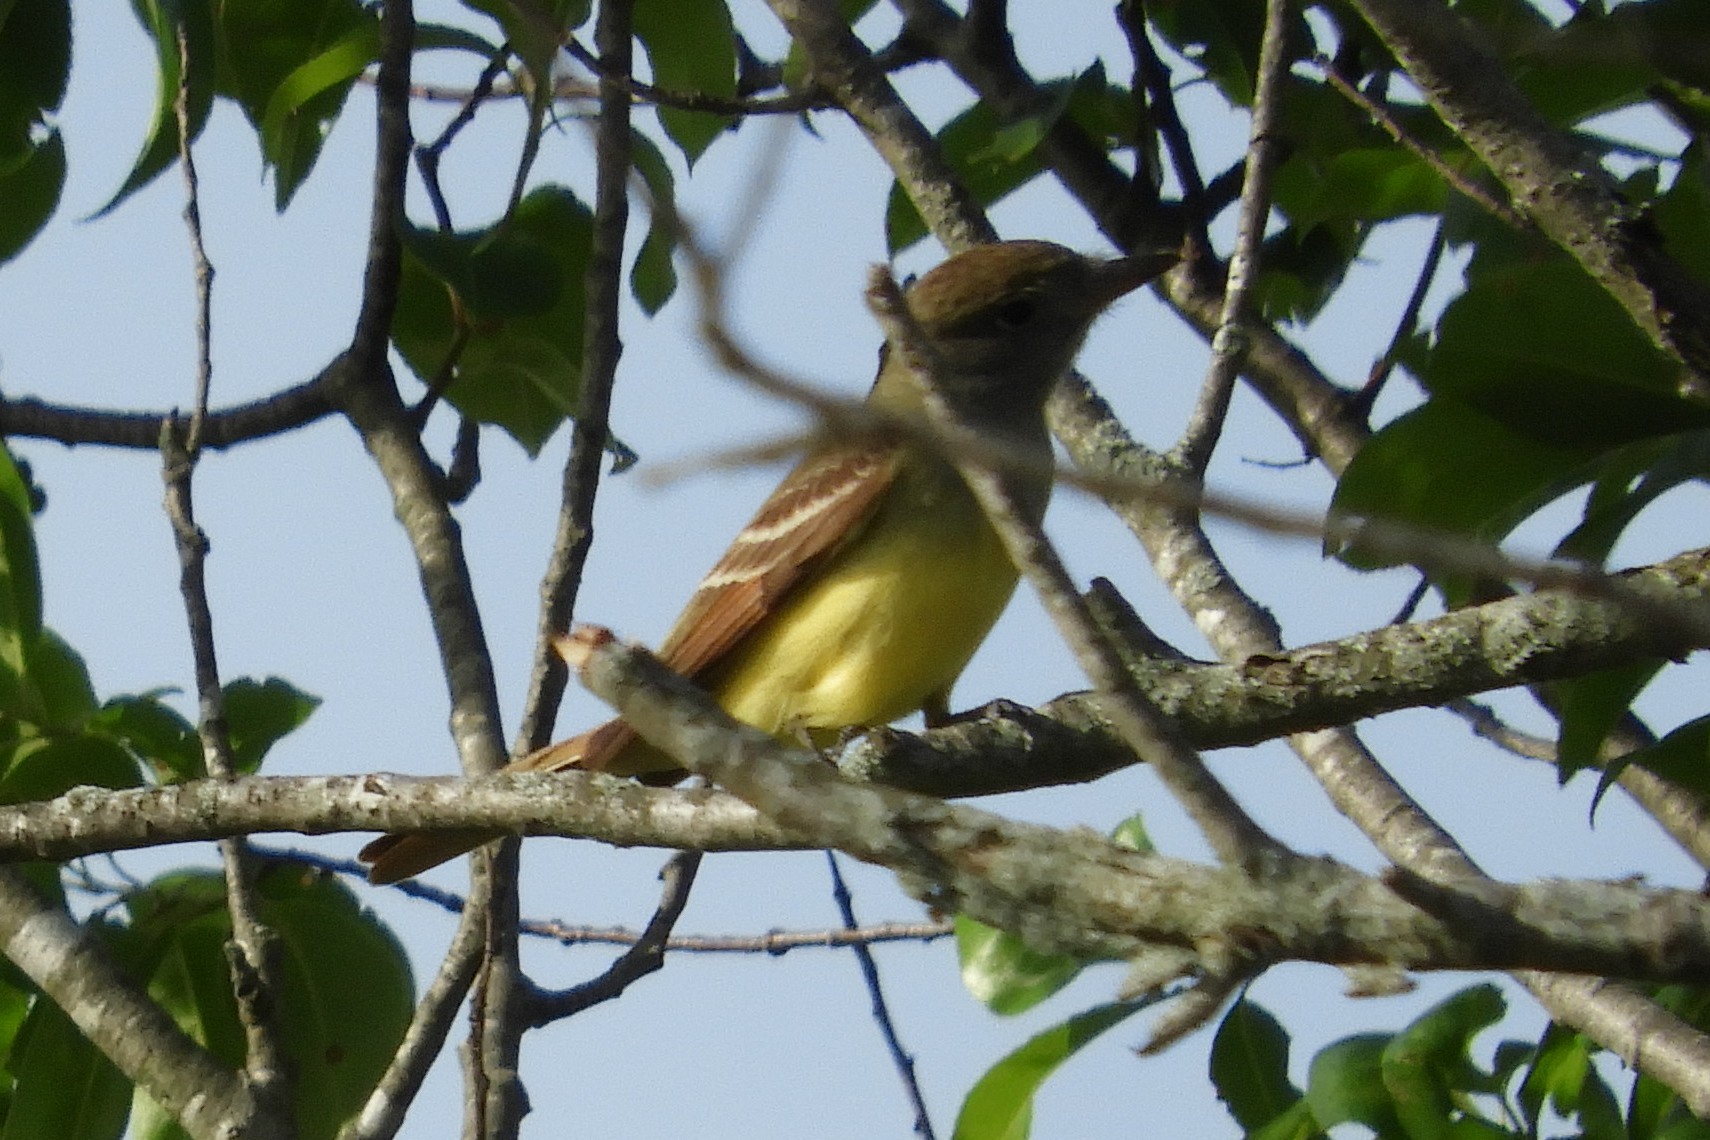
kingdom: Animalia
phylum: Chordata
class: Aves
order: Passeriformes
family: Tyrannidae
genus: Myiarchus
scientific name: Myiarchus crinitus
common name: Great crested flycatcher
